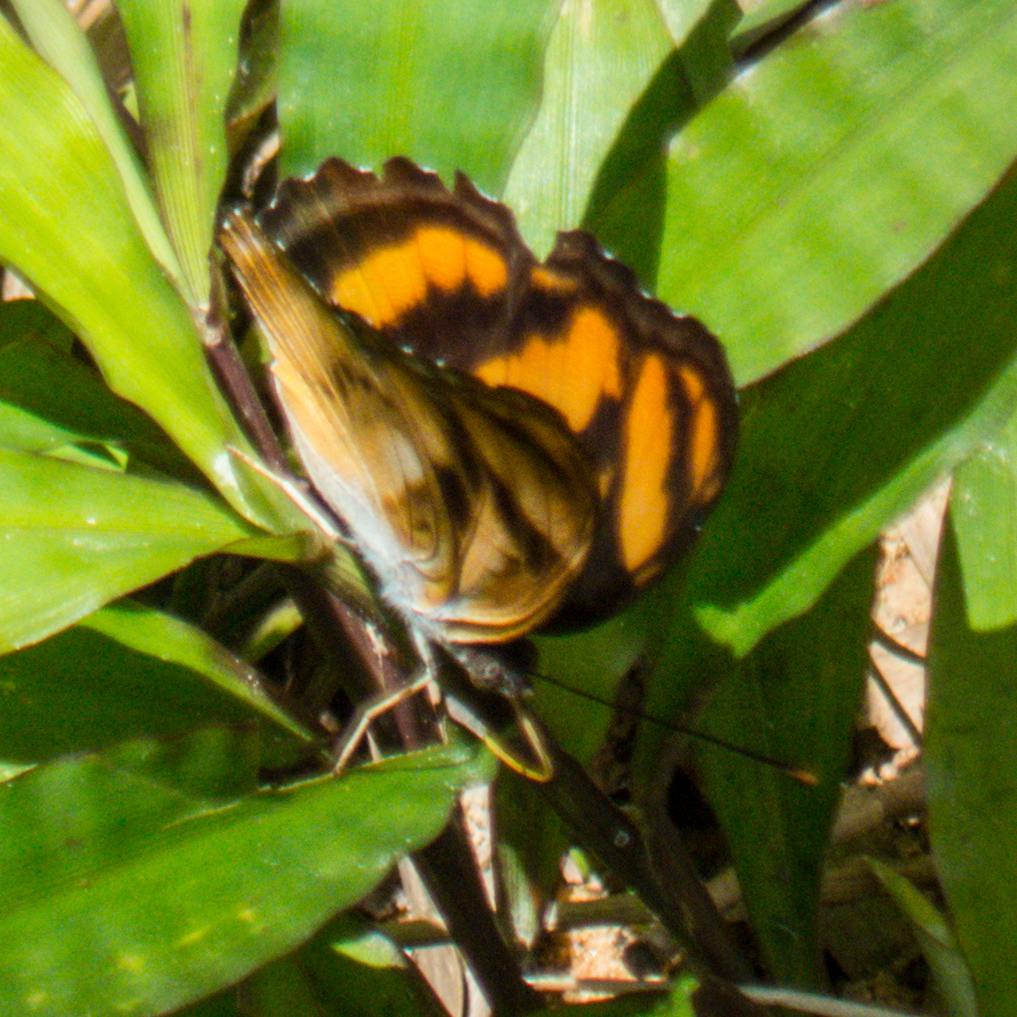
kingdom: Animalia
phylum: Arthropoda
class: Insecta
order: Lepidoptera
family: Nymphalidae
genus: Parathyma
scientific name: Parathyma nefte
